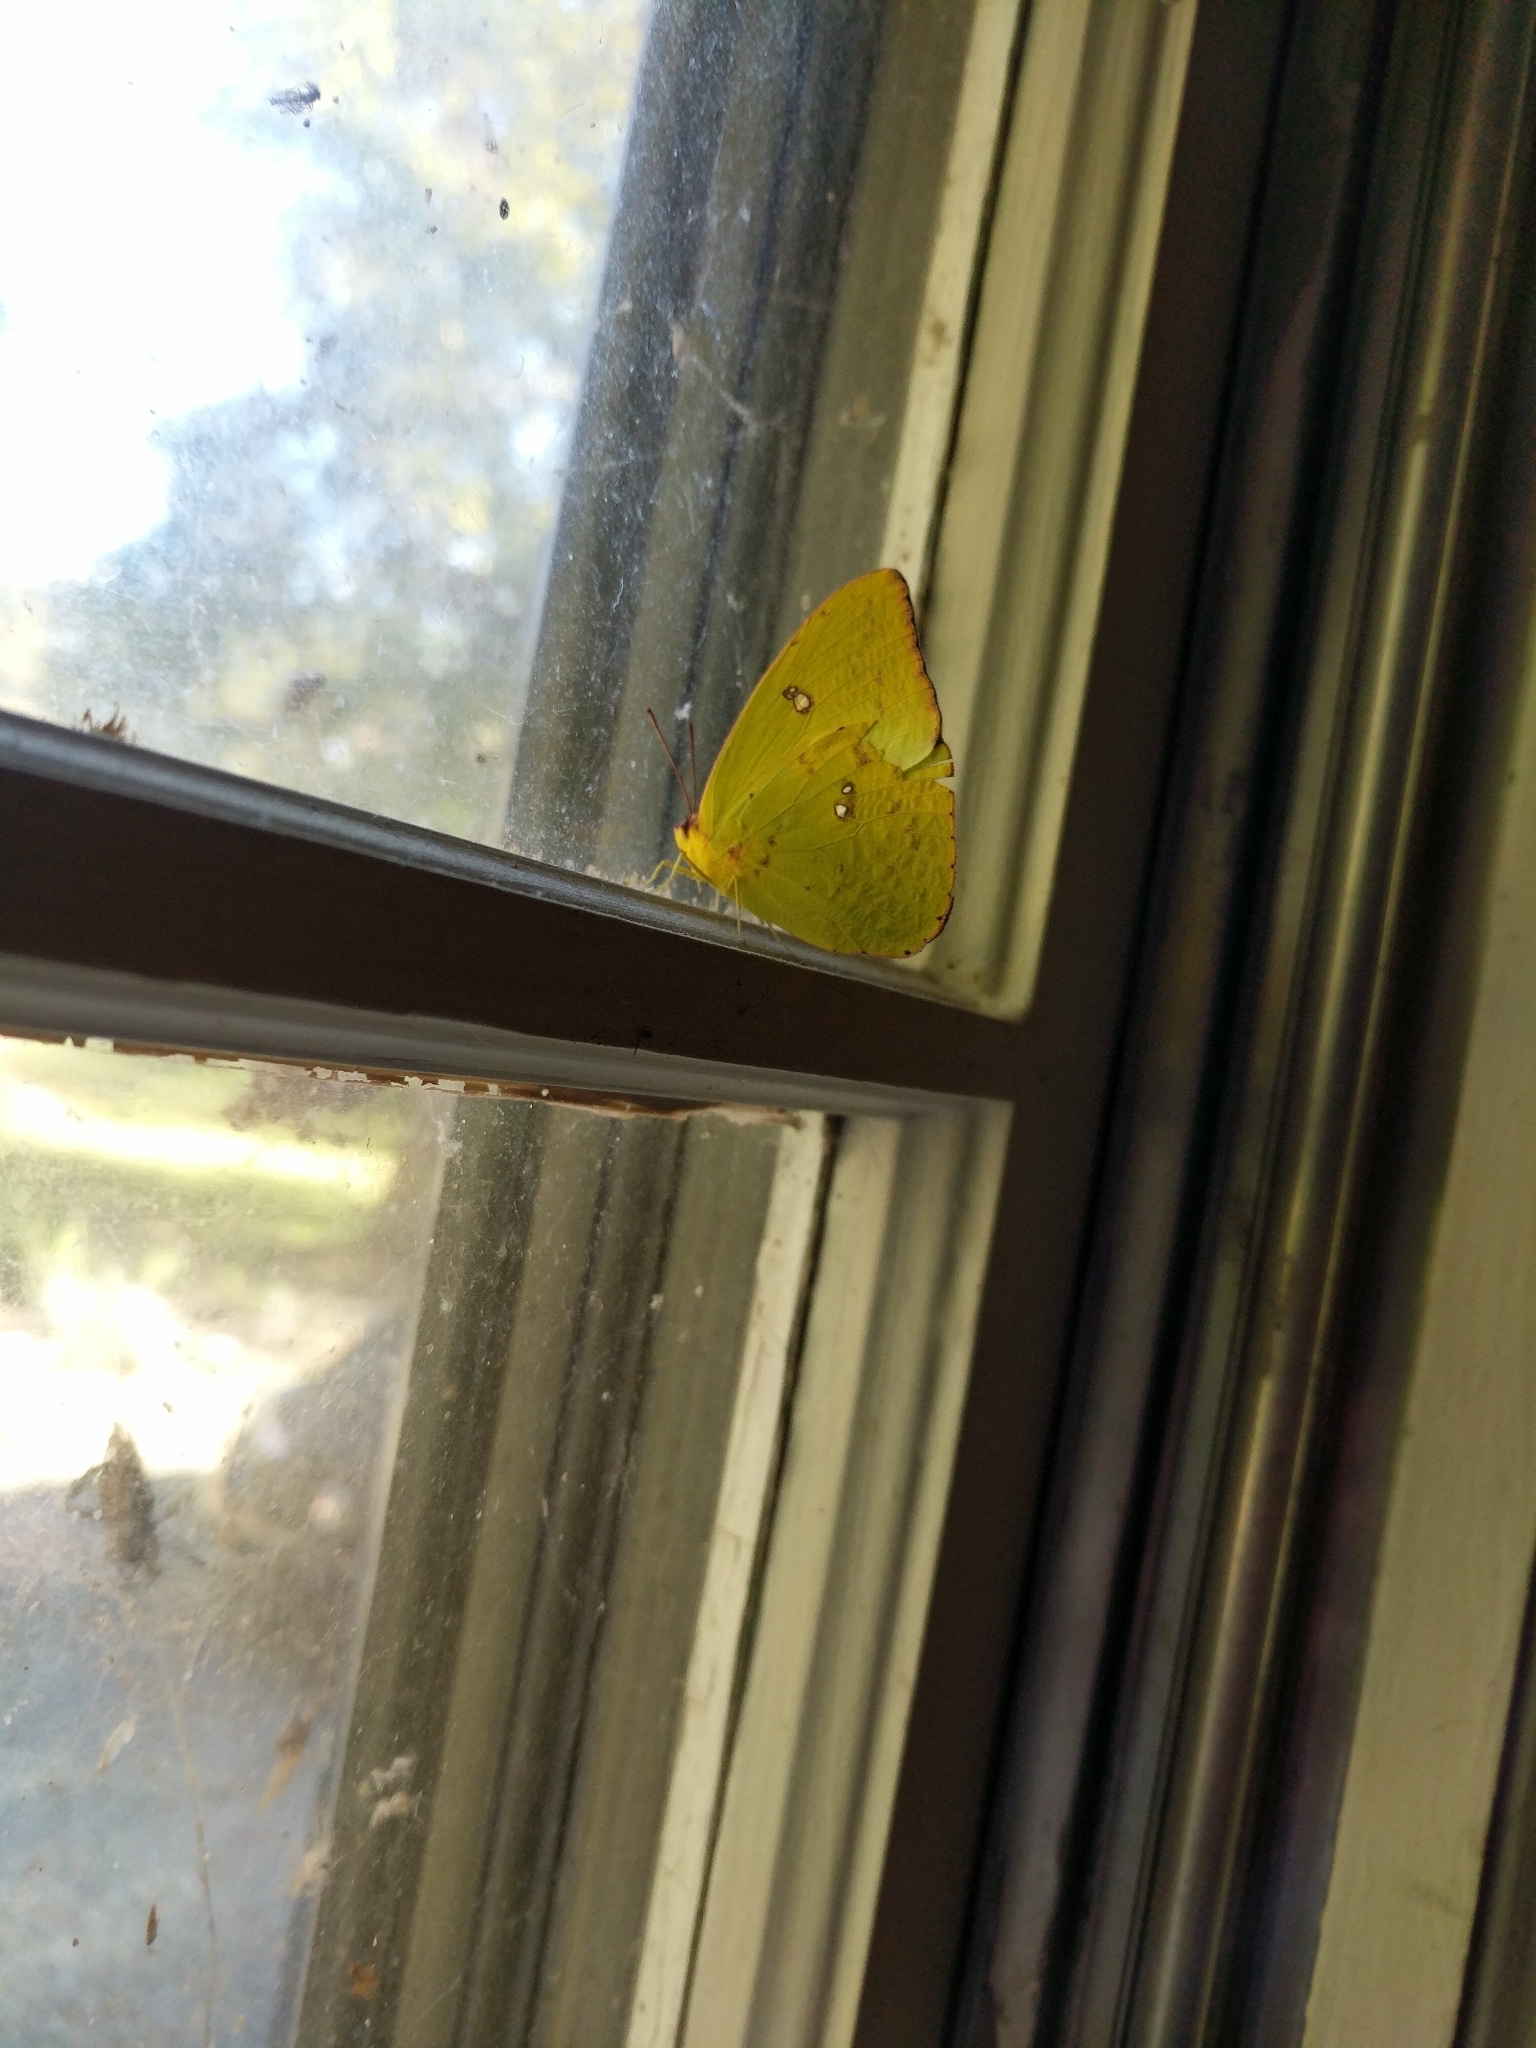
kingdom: Animalia
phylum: Arthropoda
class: Insecta
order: Lepidoptera
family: Pieridae
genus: Phoebis
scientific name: Phoebis sennae
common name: Cloudless sulphur
